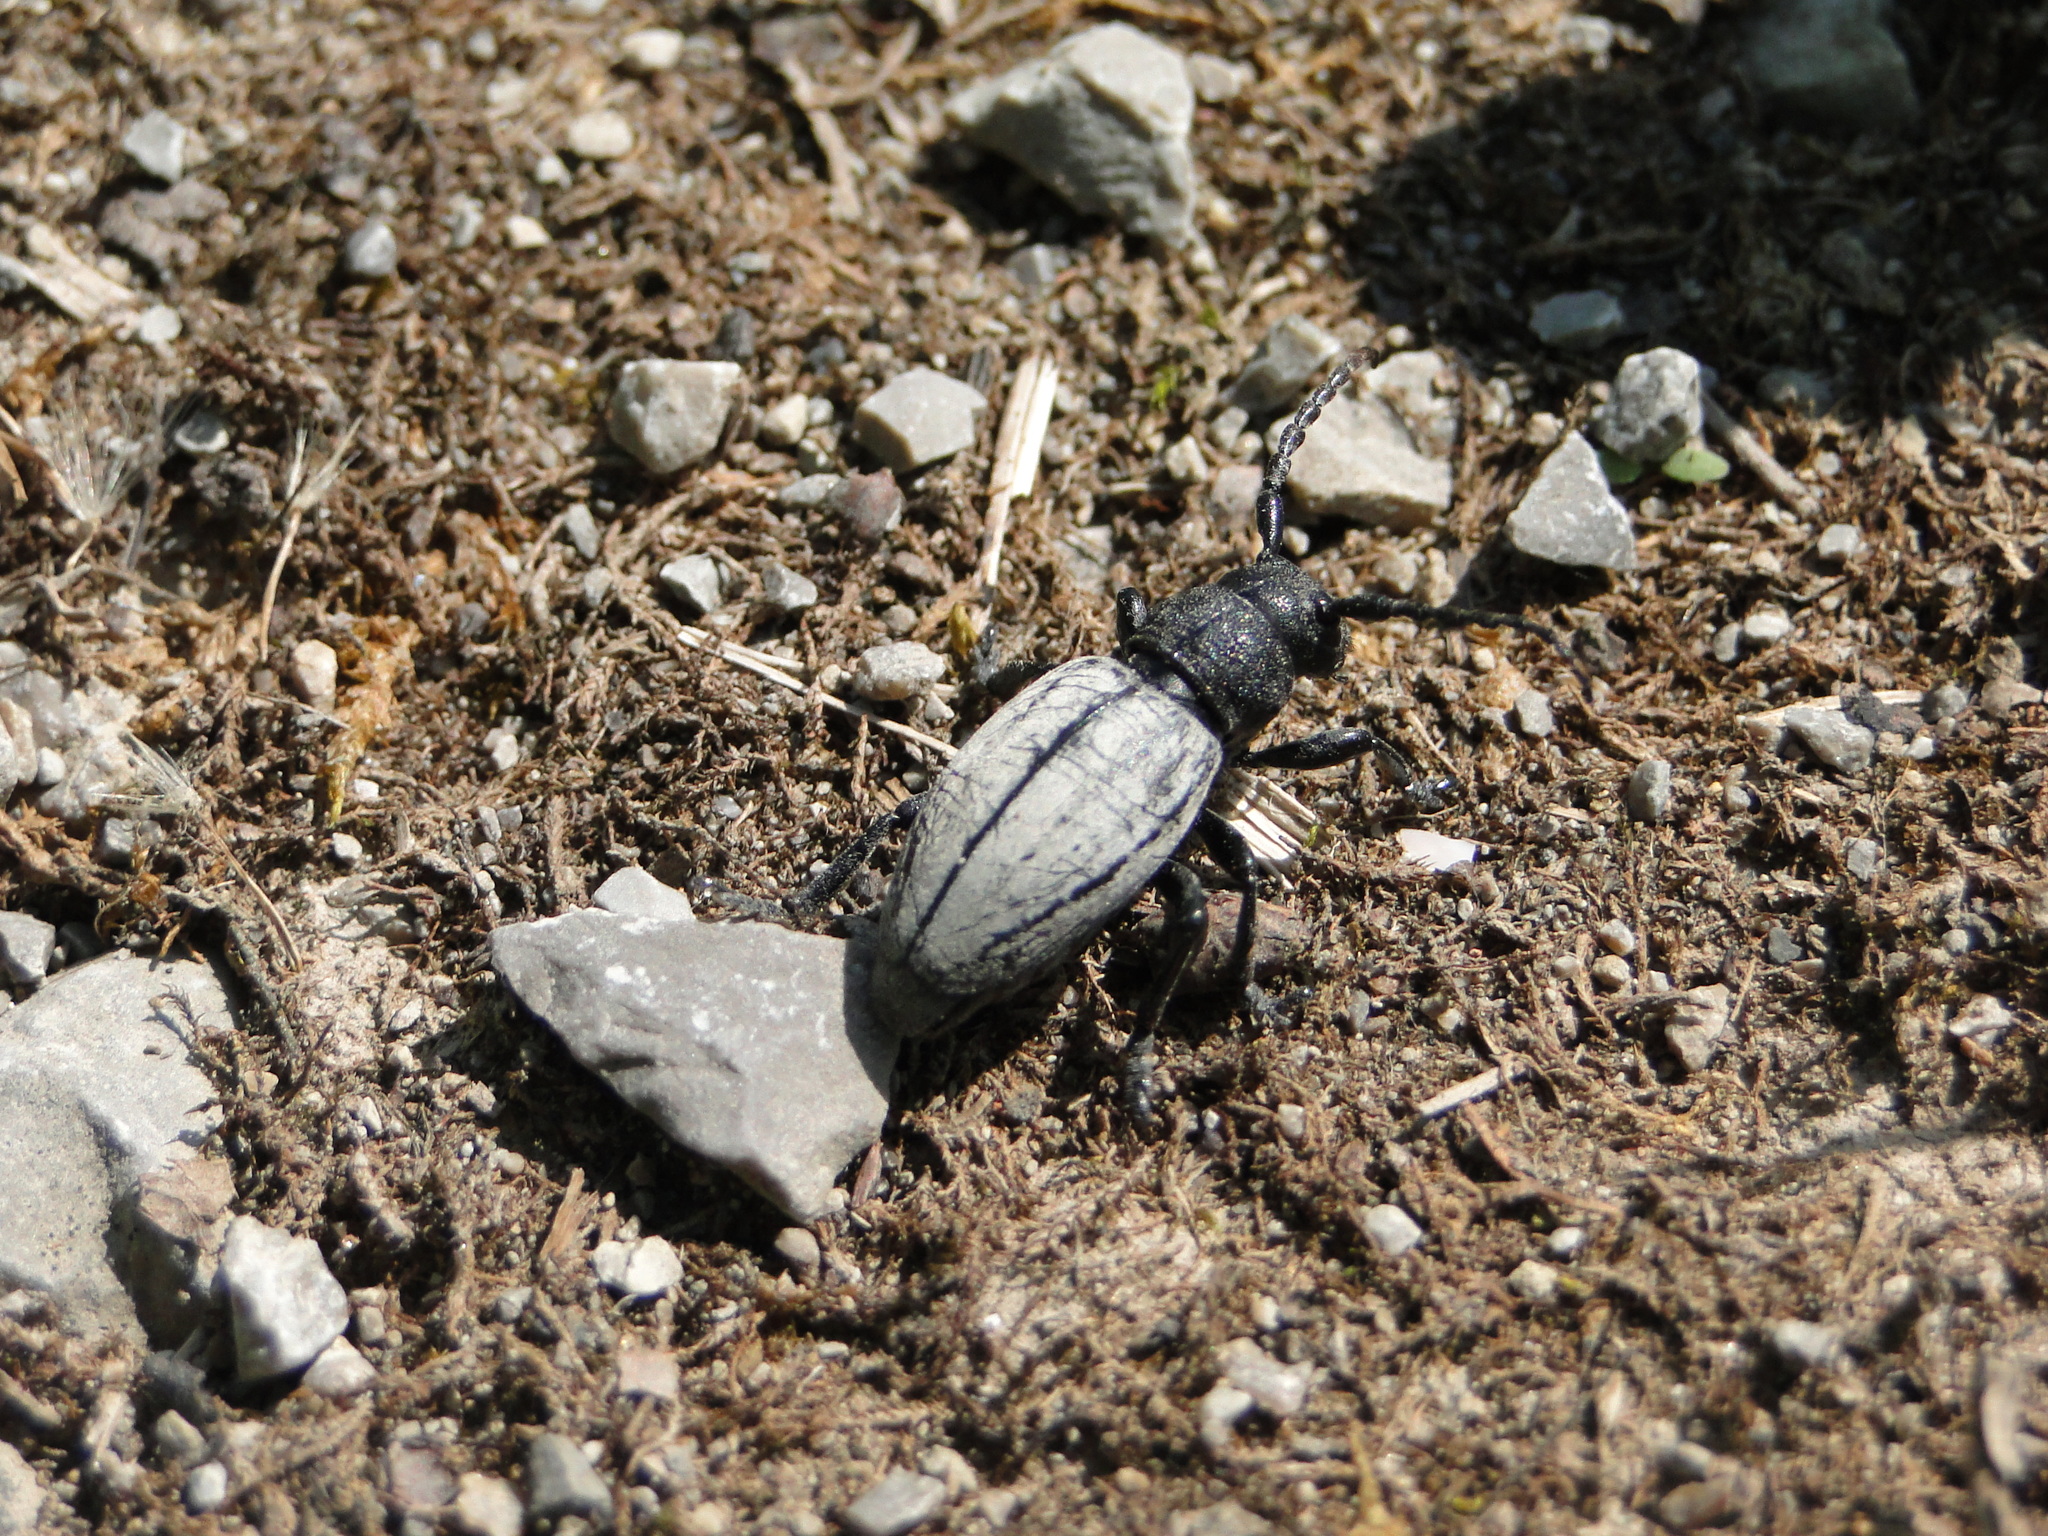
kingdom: Animalia
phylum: Arthropoda
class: Insecta
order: Coleoptera
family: Cerambycidae
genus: Iberodorcadion
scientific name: Iberodorcadion fuliginator
